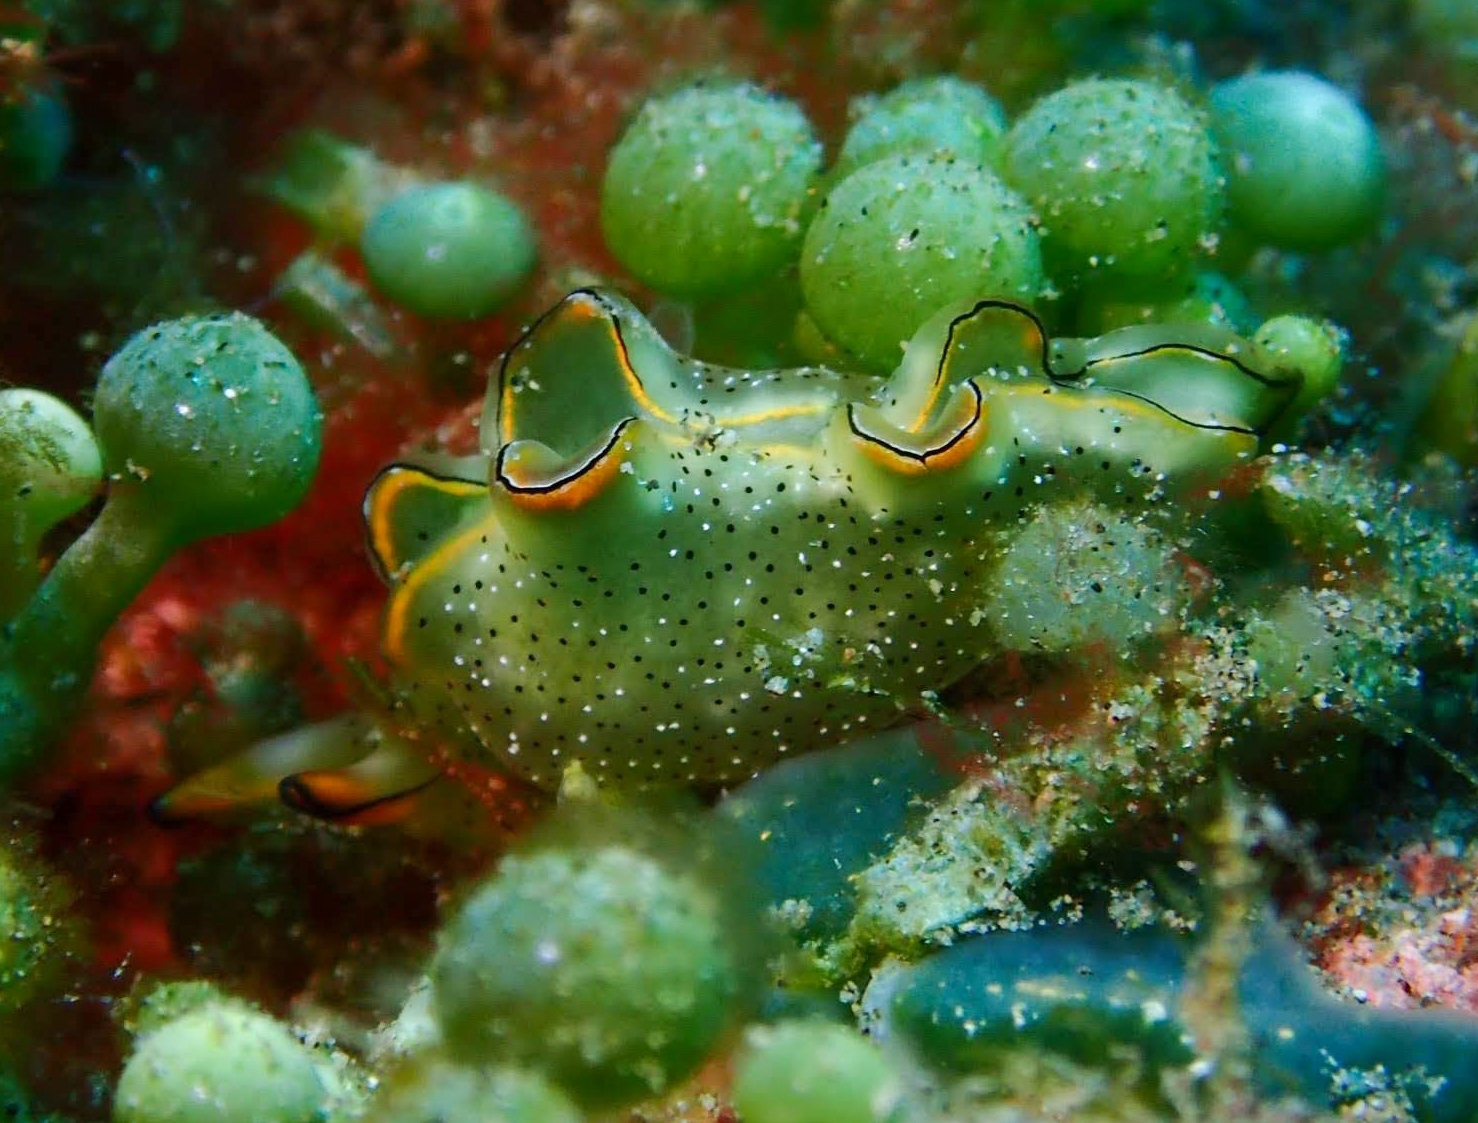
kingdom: Animalia
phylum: Mollusca
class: Gastropoda
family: Plakobranchidae
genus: Elysia
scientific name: Elysia marginata
